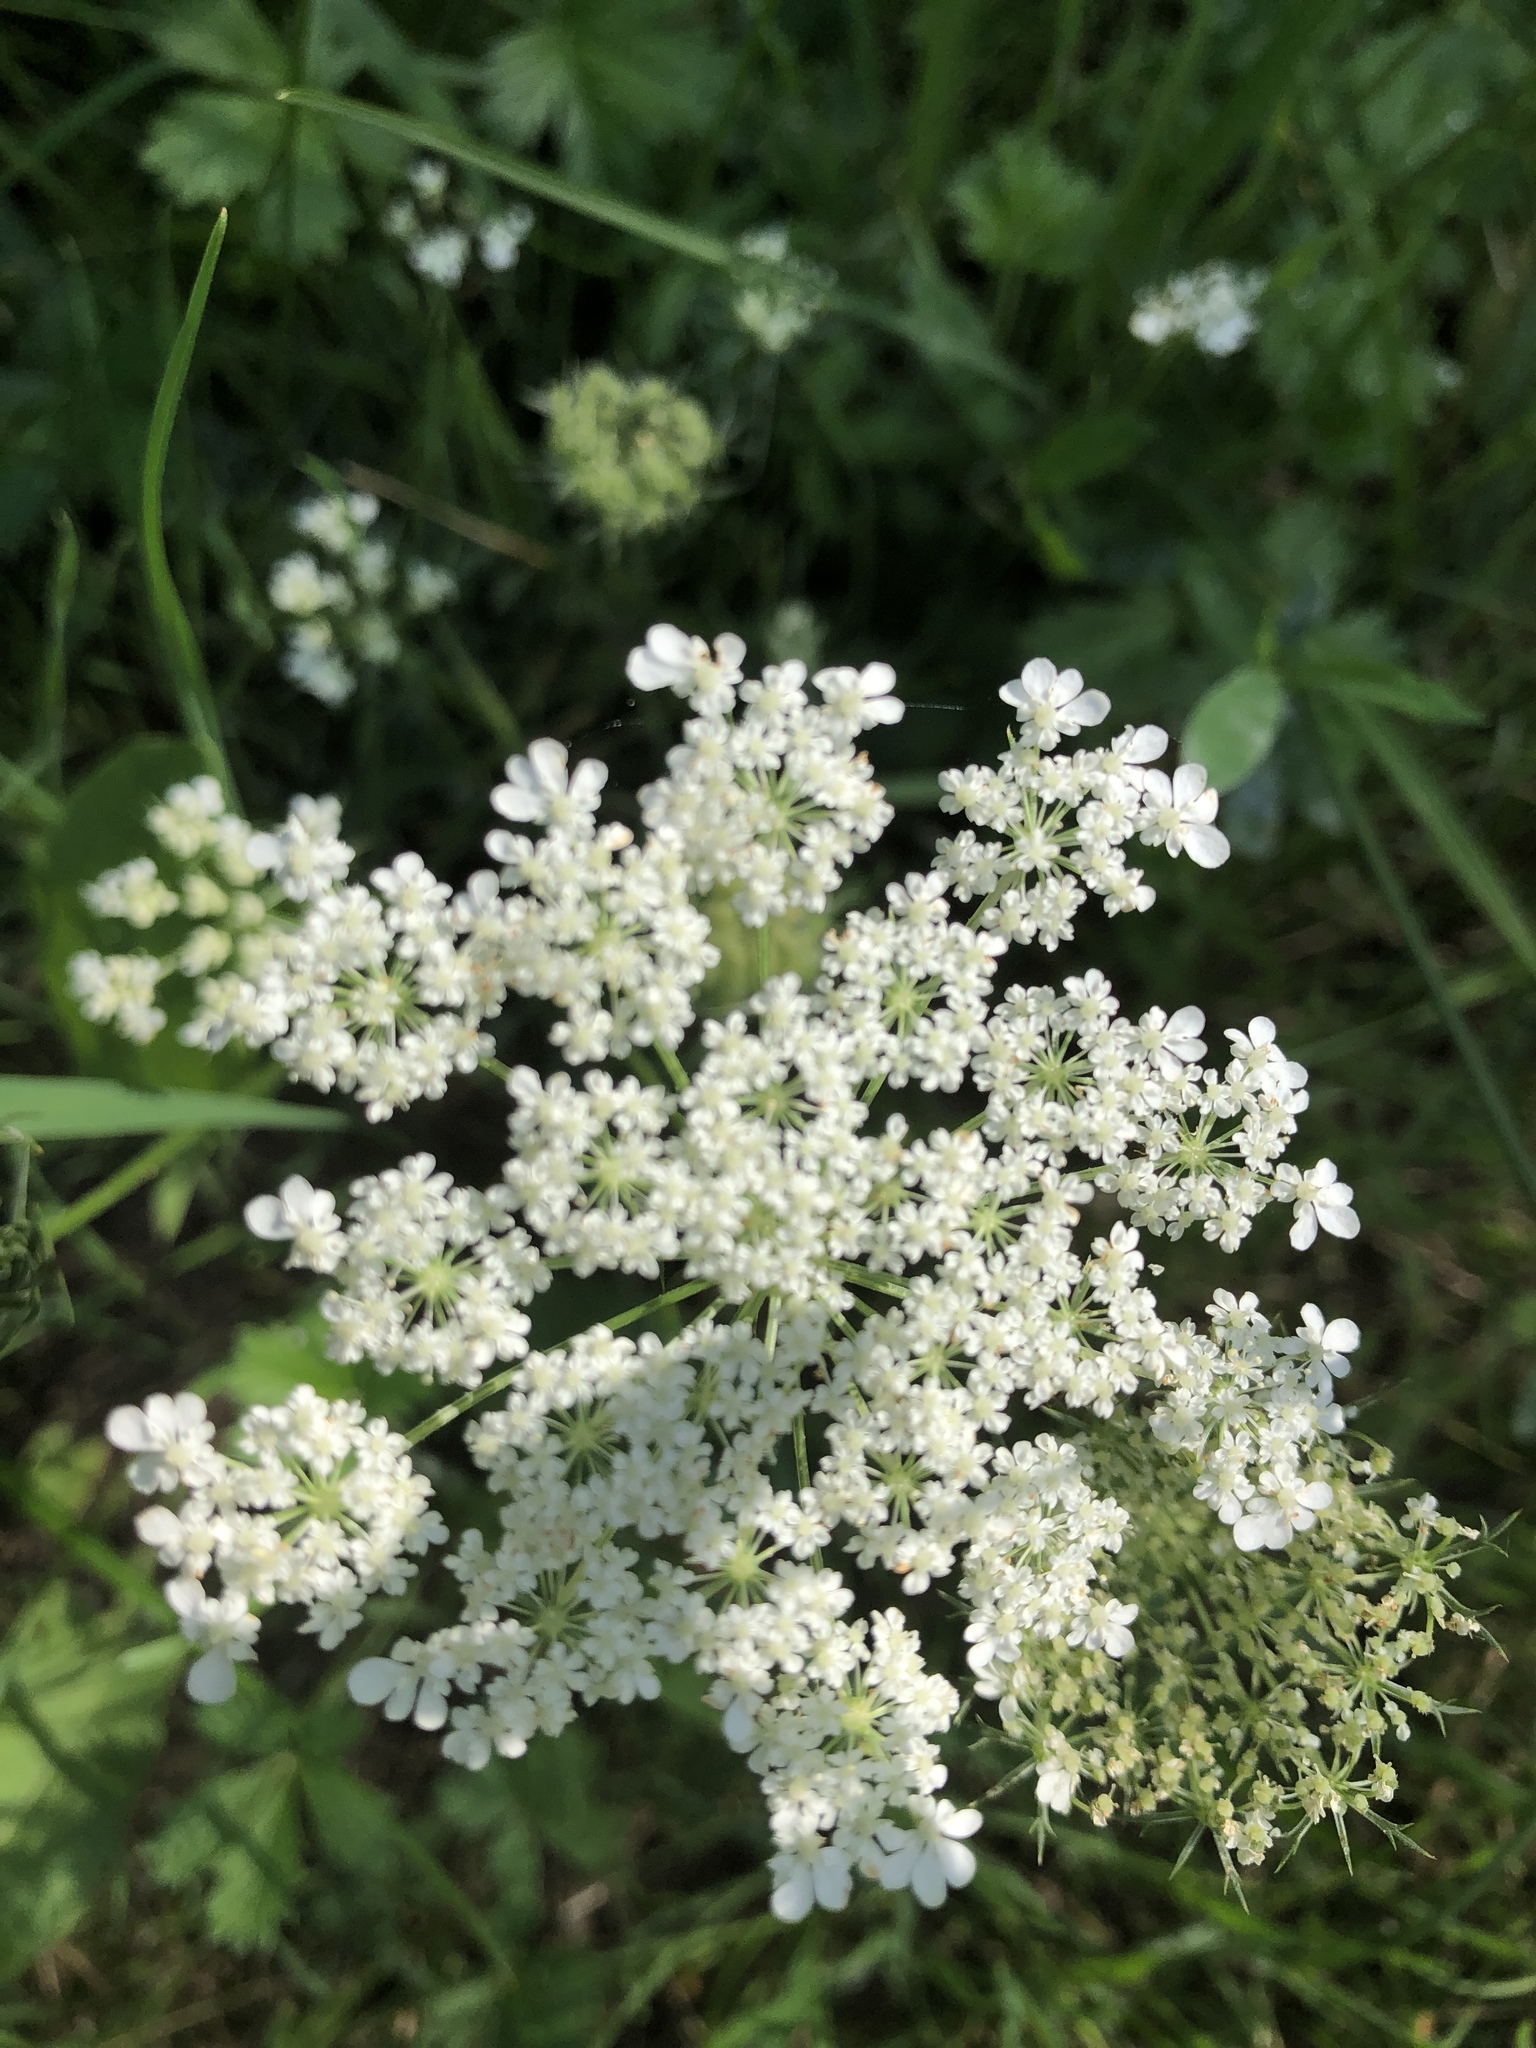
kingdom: Plantae
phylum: Tracheophyta
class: Magnoliopsida
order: Apiales
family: Apiaceae
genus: Daucus
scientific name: Daucus carota
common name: Wild carrot
